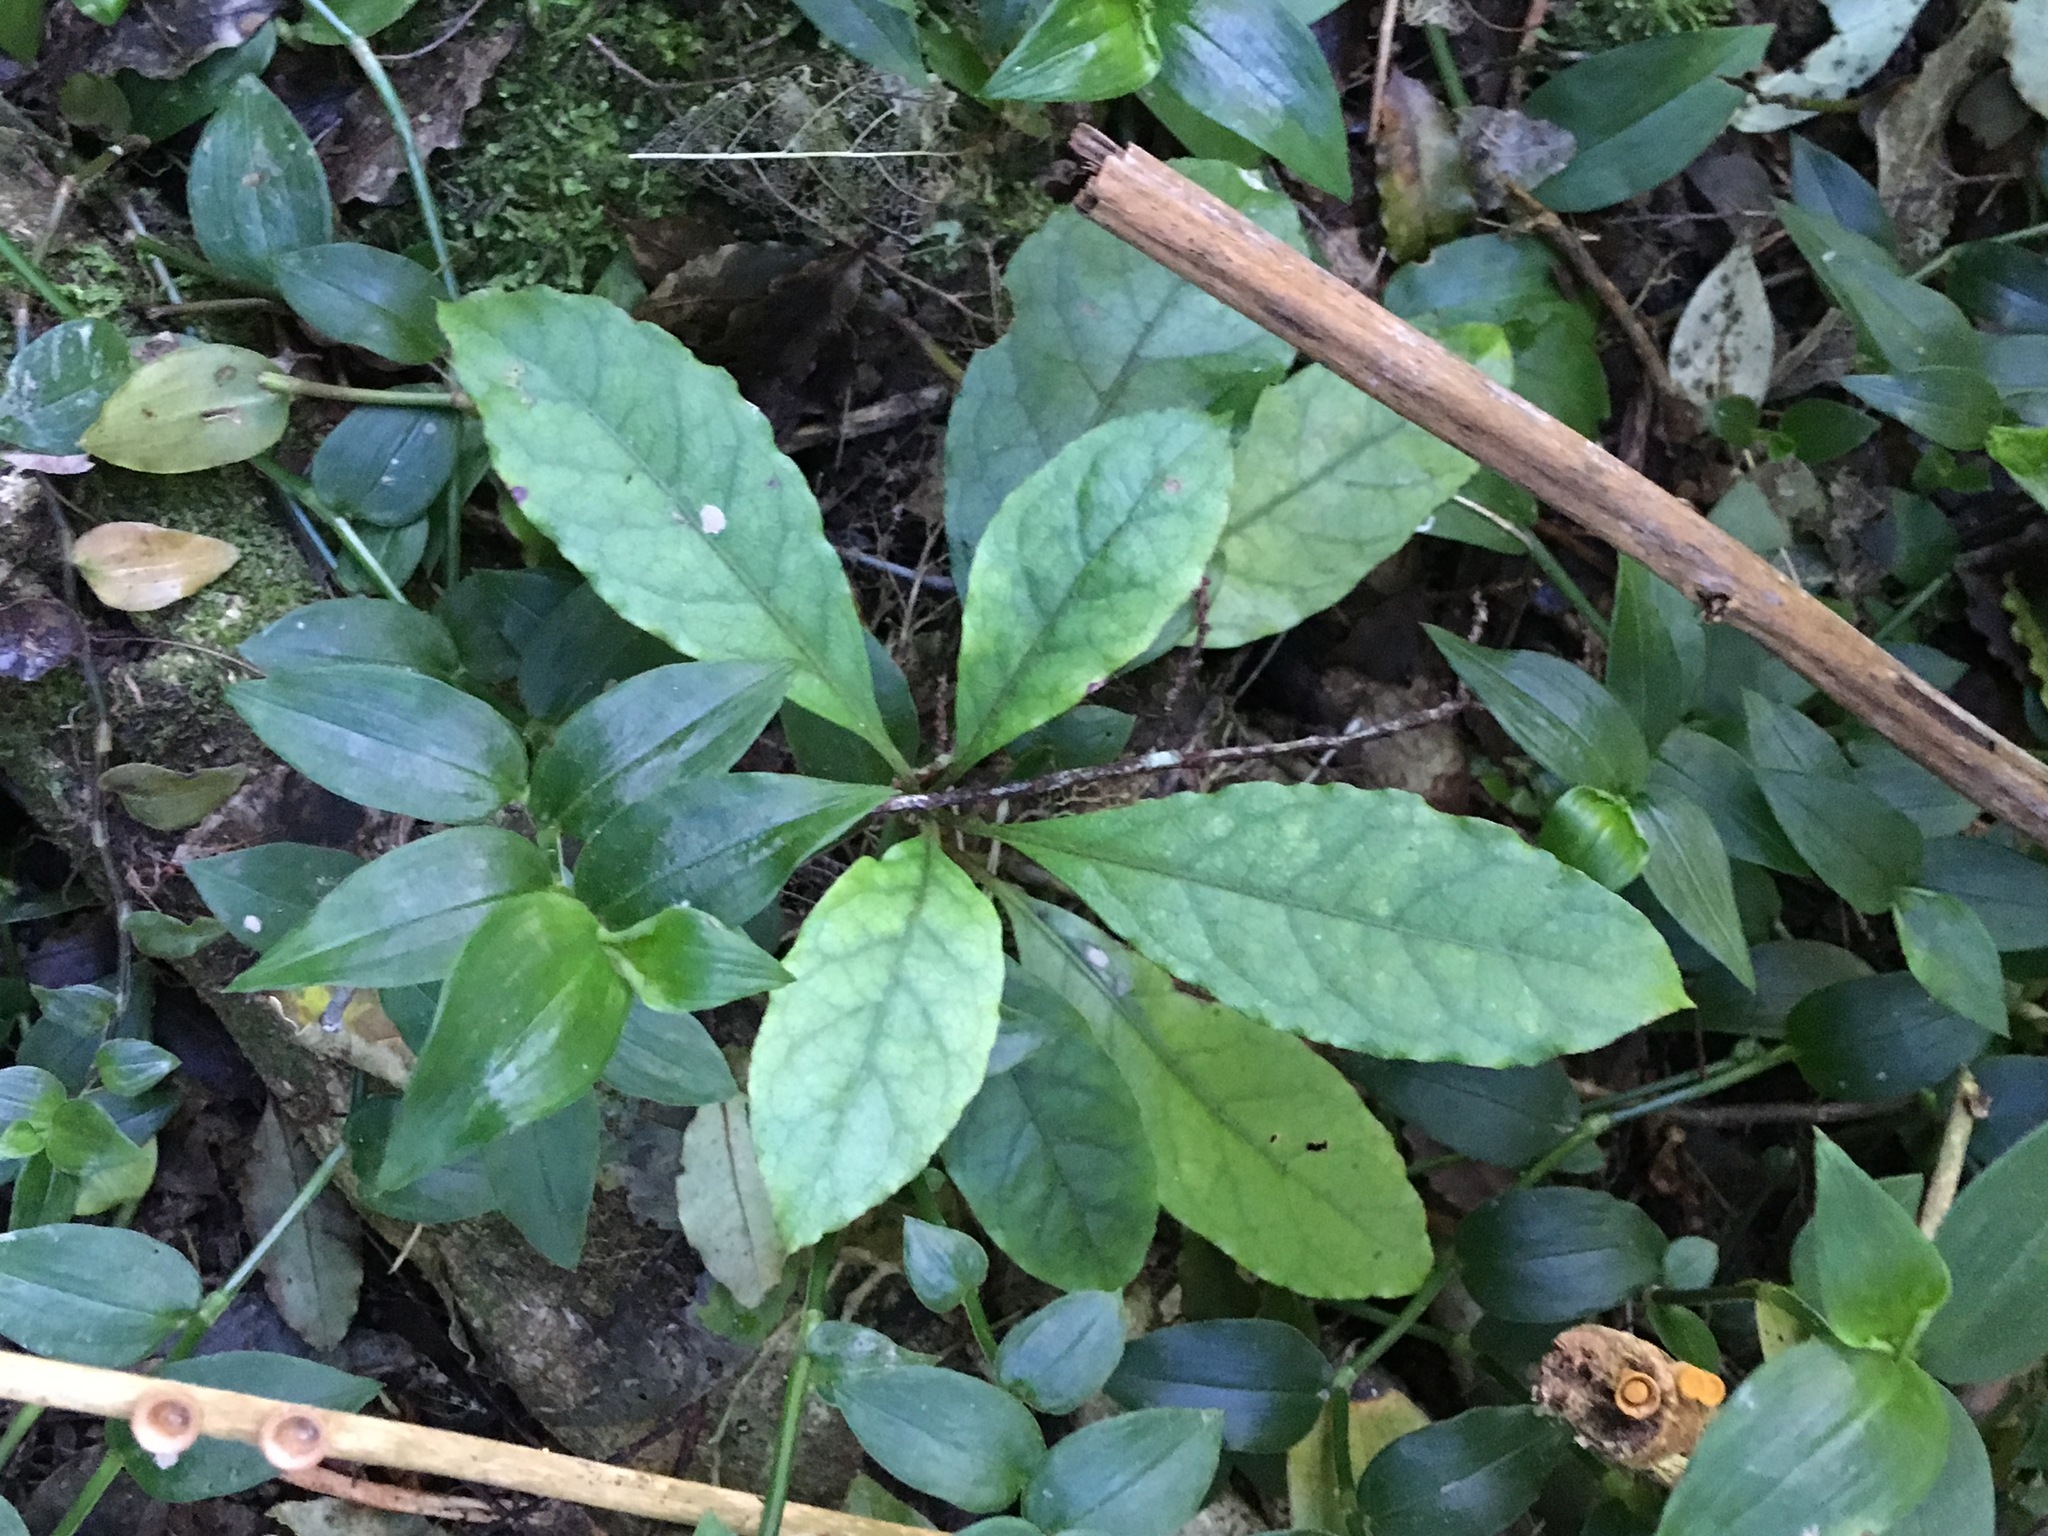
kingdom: Plantae
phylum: Tracheophyta
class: Magnoliopsida
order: Gentianales
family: Rubiaceae
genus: Coprosma
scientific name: Coprosma autumnalis
